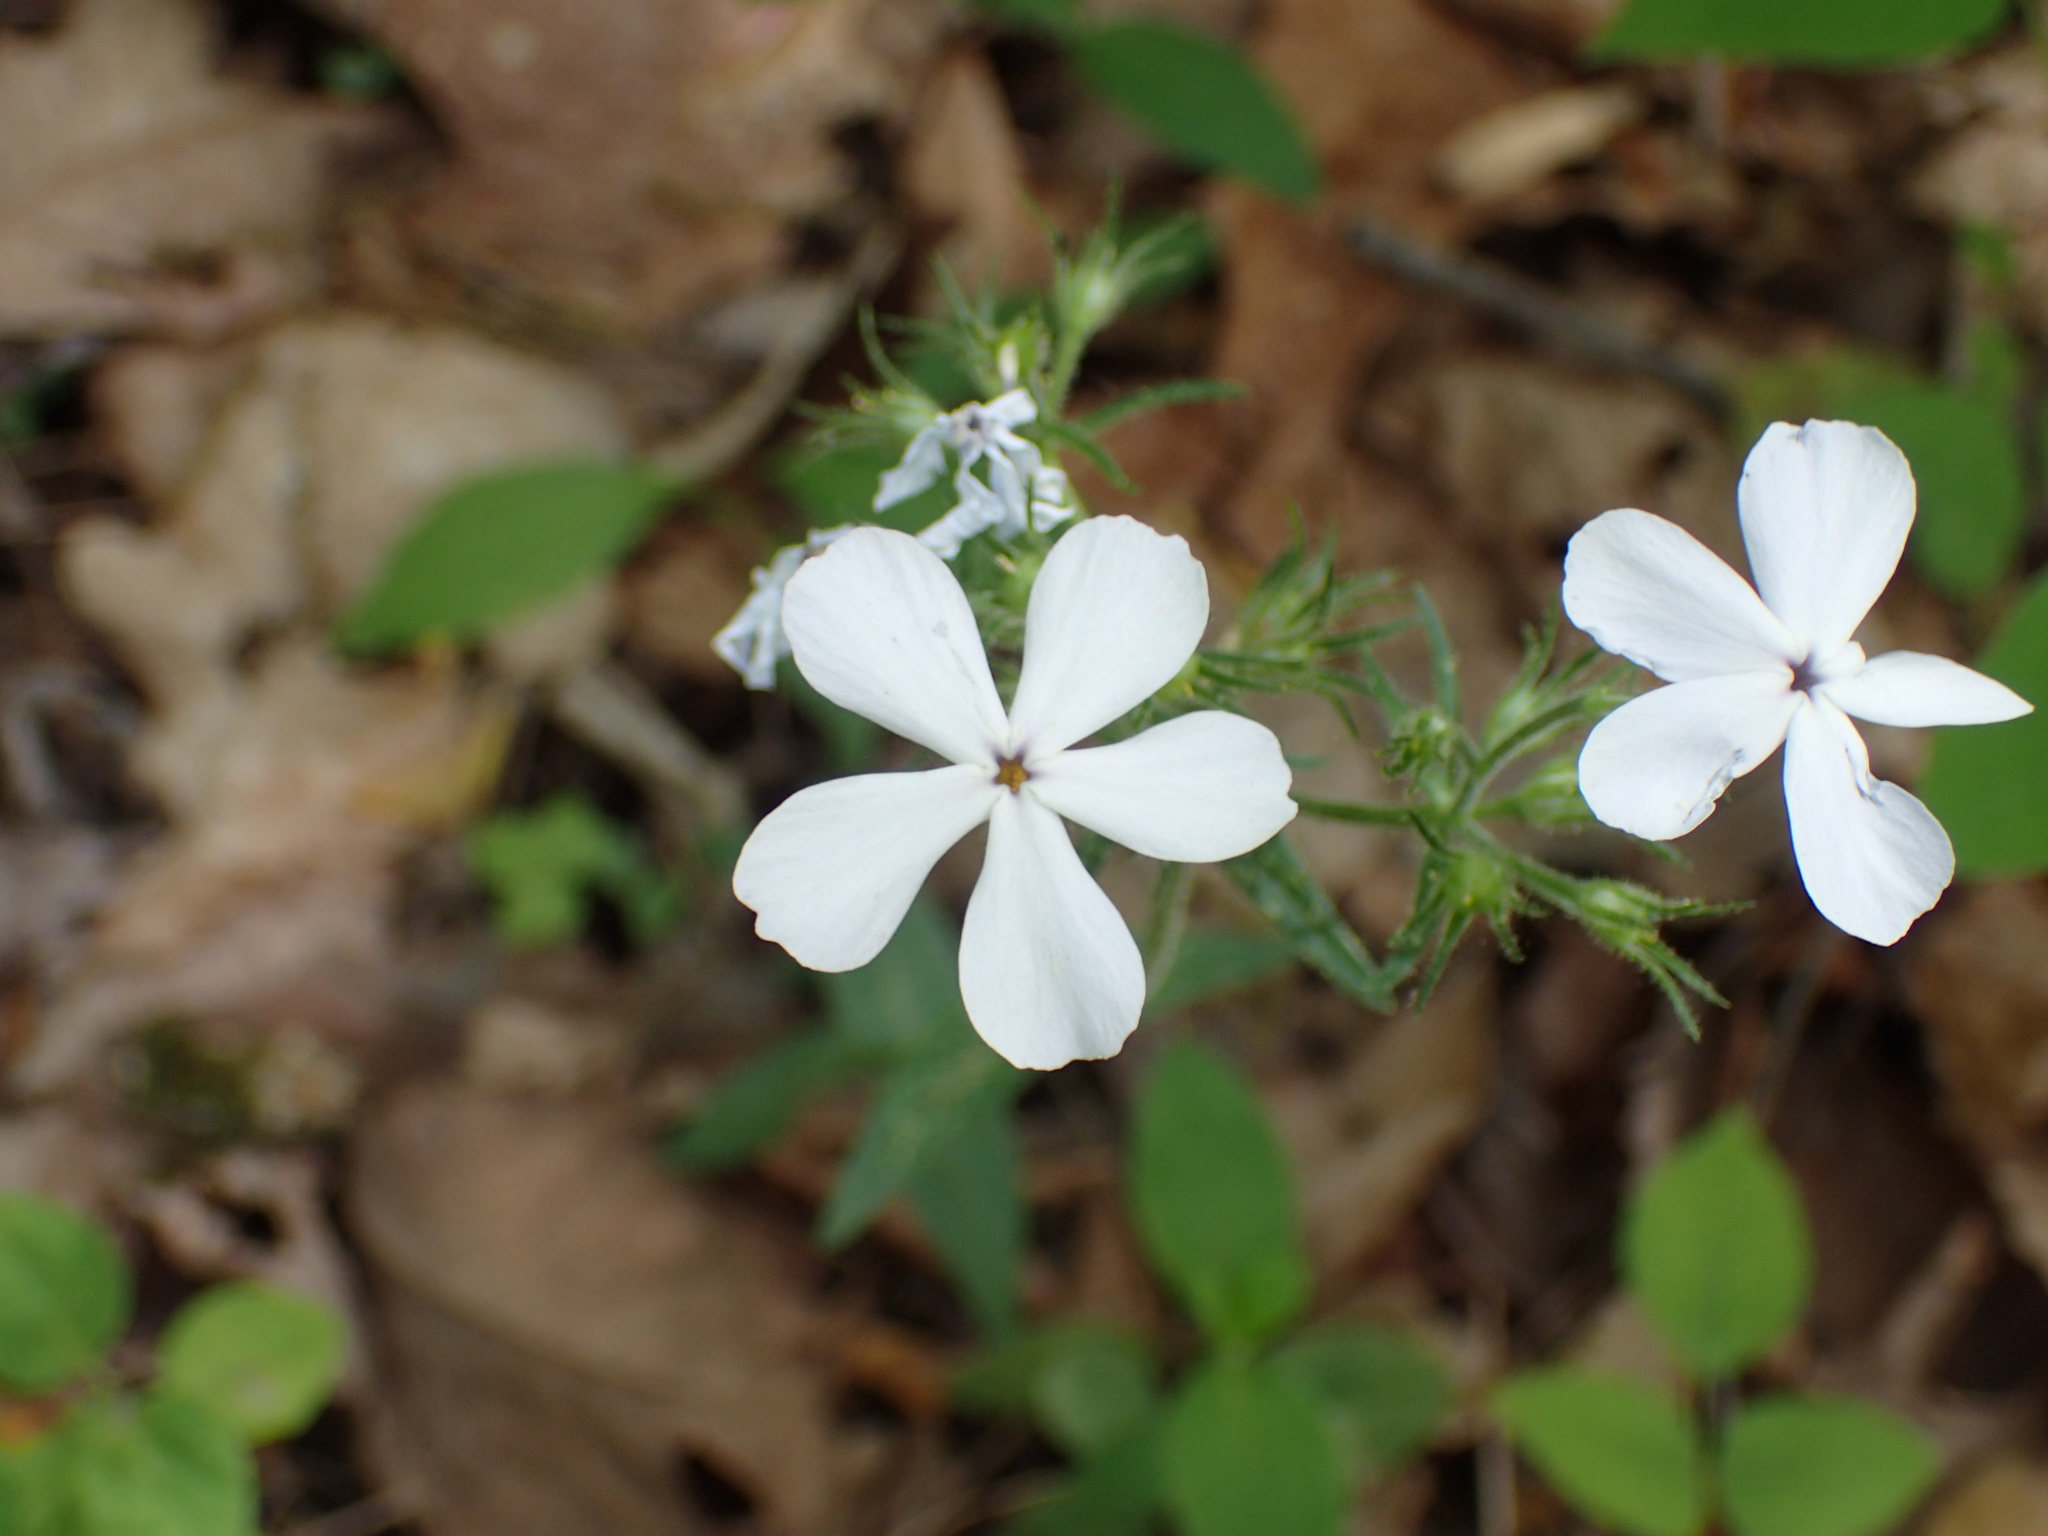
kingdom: Plantae
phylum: Tracheophyta
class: Magnoliopsida
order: Ericales
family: Polemoniaceae
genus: Phlox
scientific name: Phlox divaricata
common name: Blue phlox
